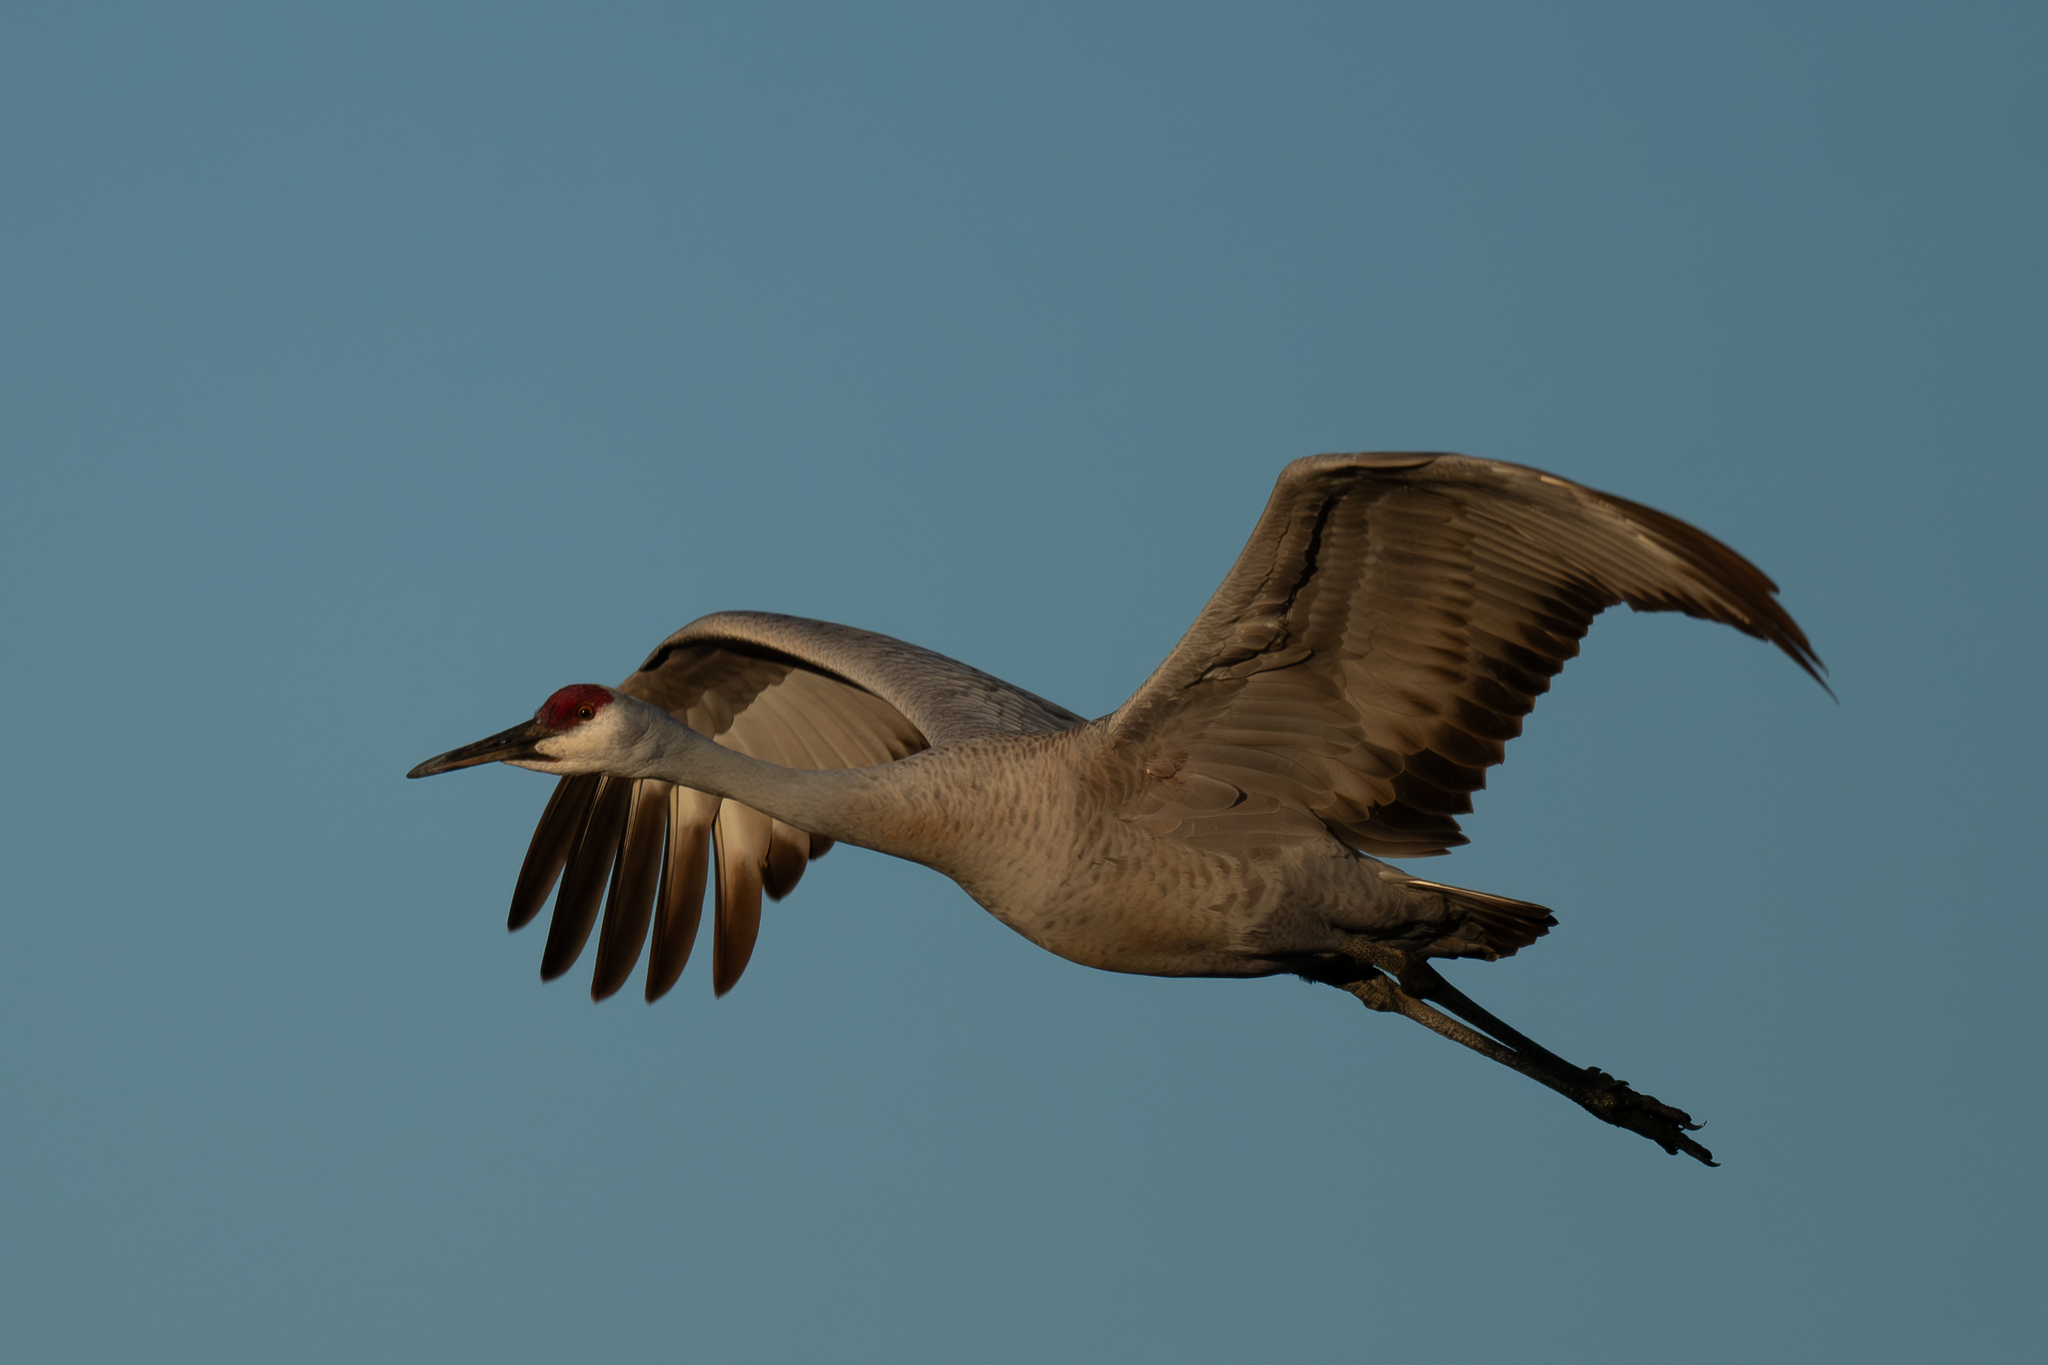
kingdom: Animalia
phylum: Chordata
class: Aves
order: Gruiformes
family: Gruidae
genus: Grus
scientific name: Grus canadensis
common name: Sandhill crane
